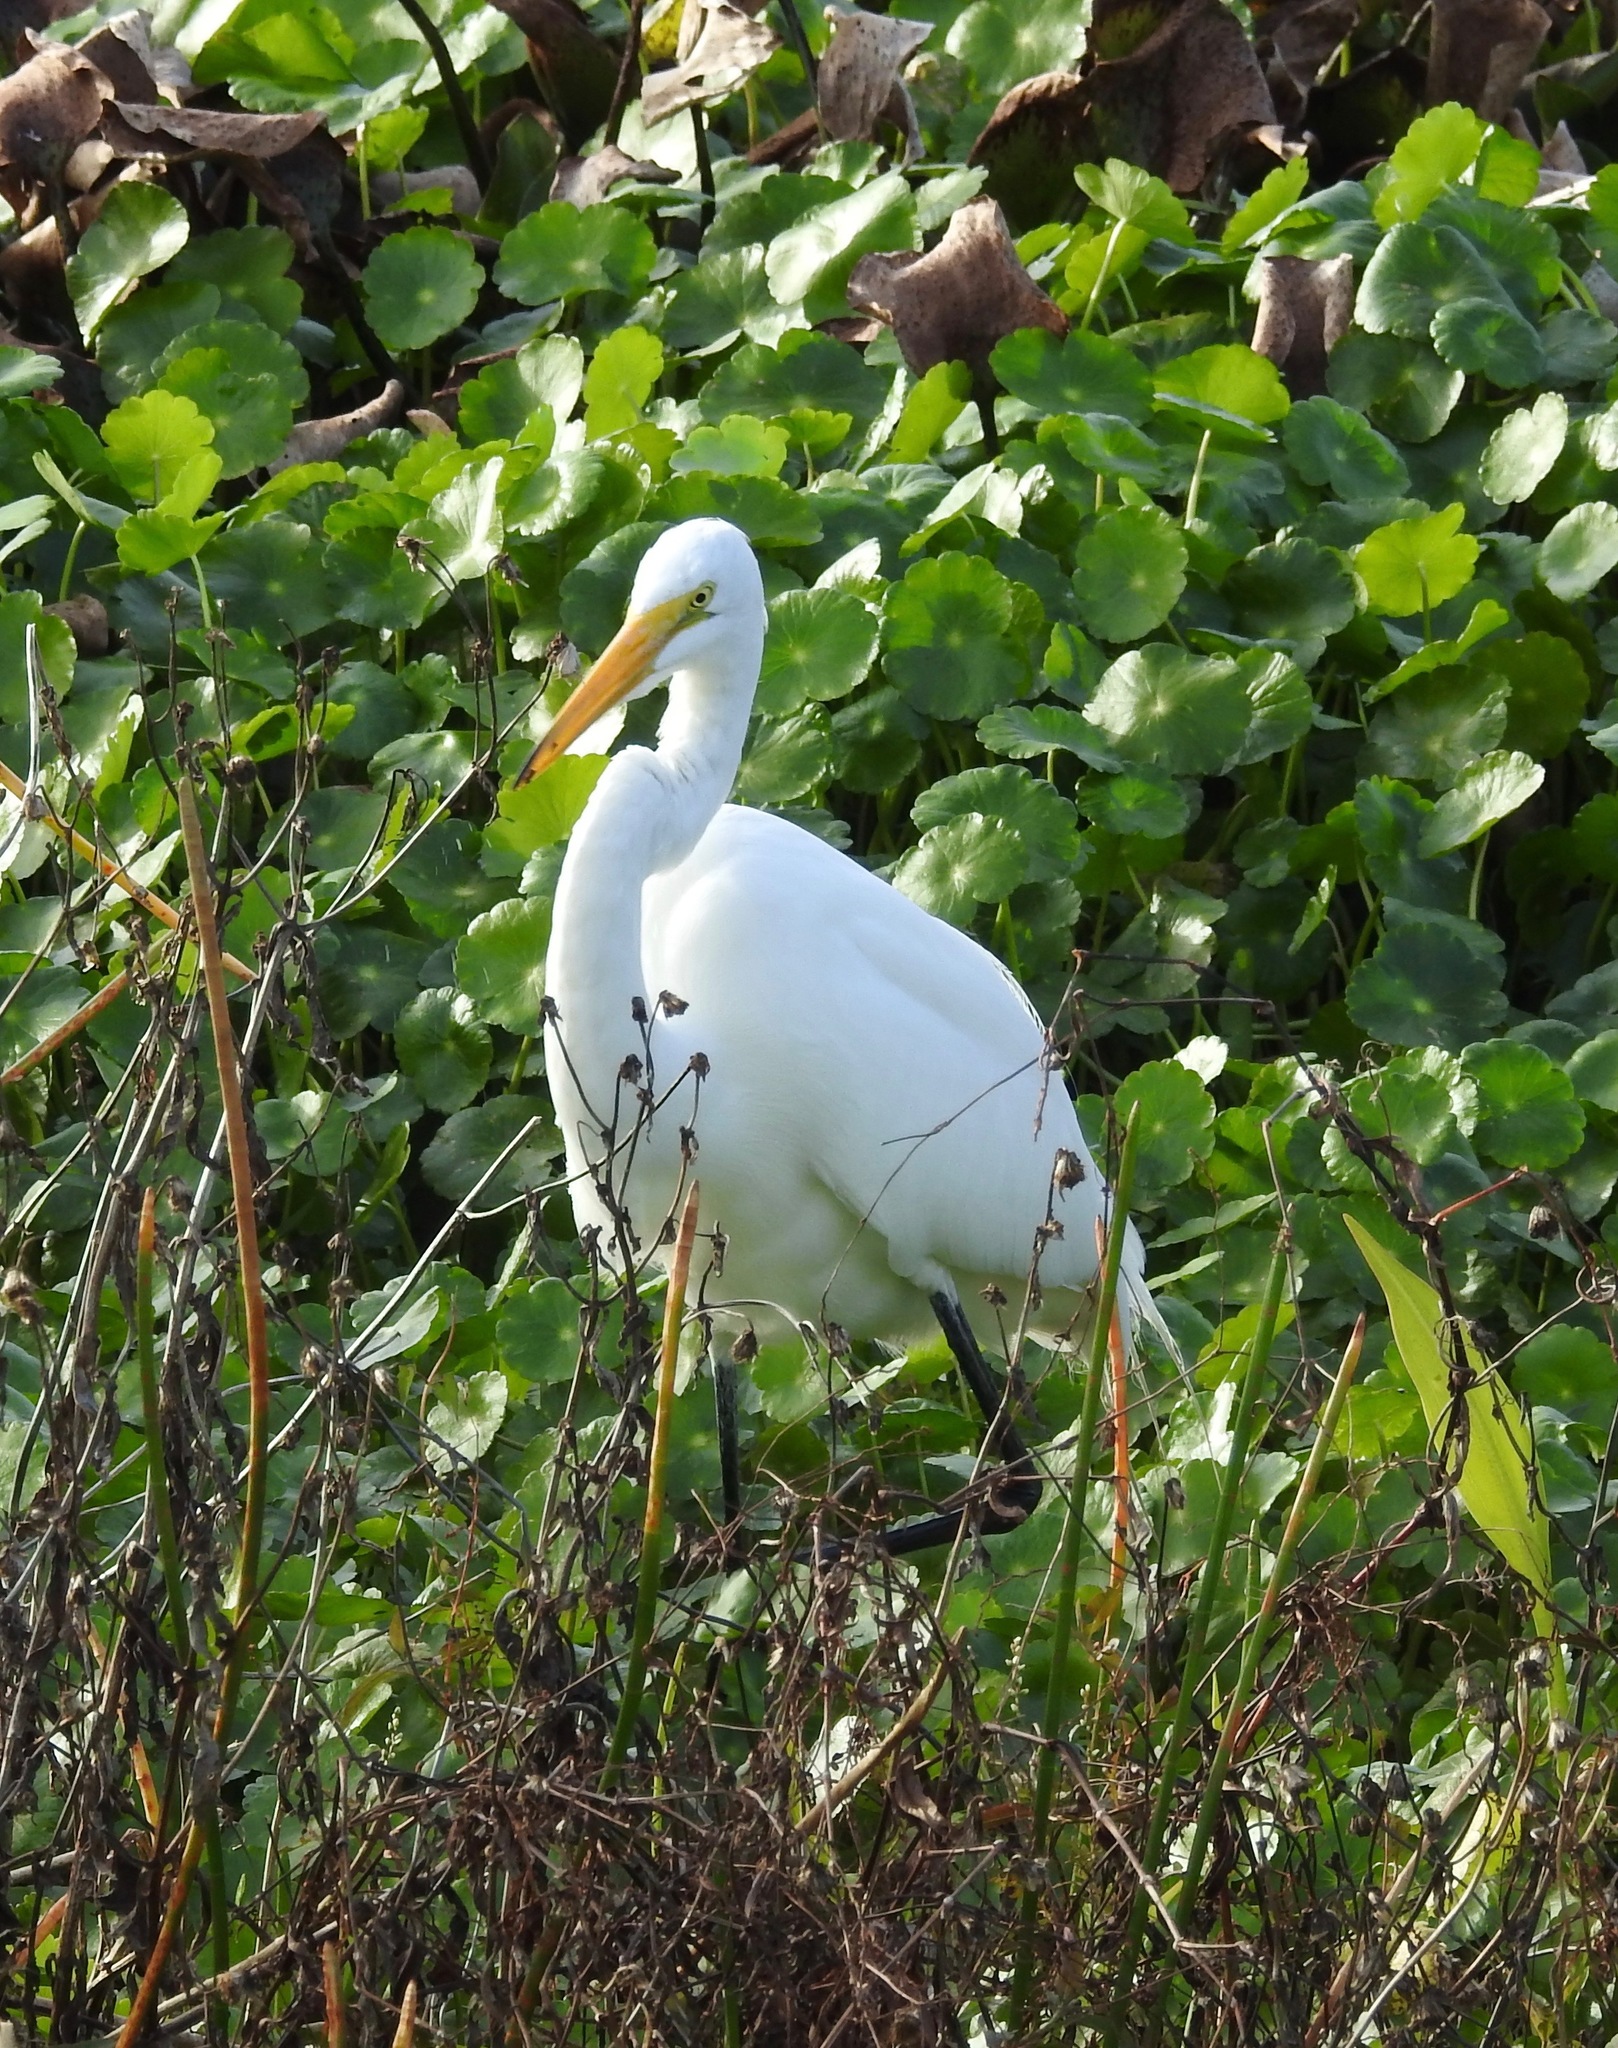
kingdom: Animalia
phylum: Chordata
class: Aves
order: Pelecaniformes
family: Ardeidae
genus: Ardea
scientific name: Ardea alba
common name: Great egret
